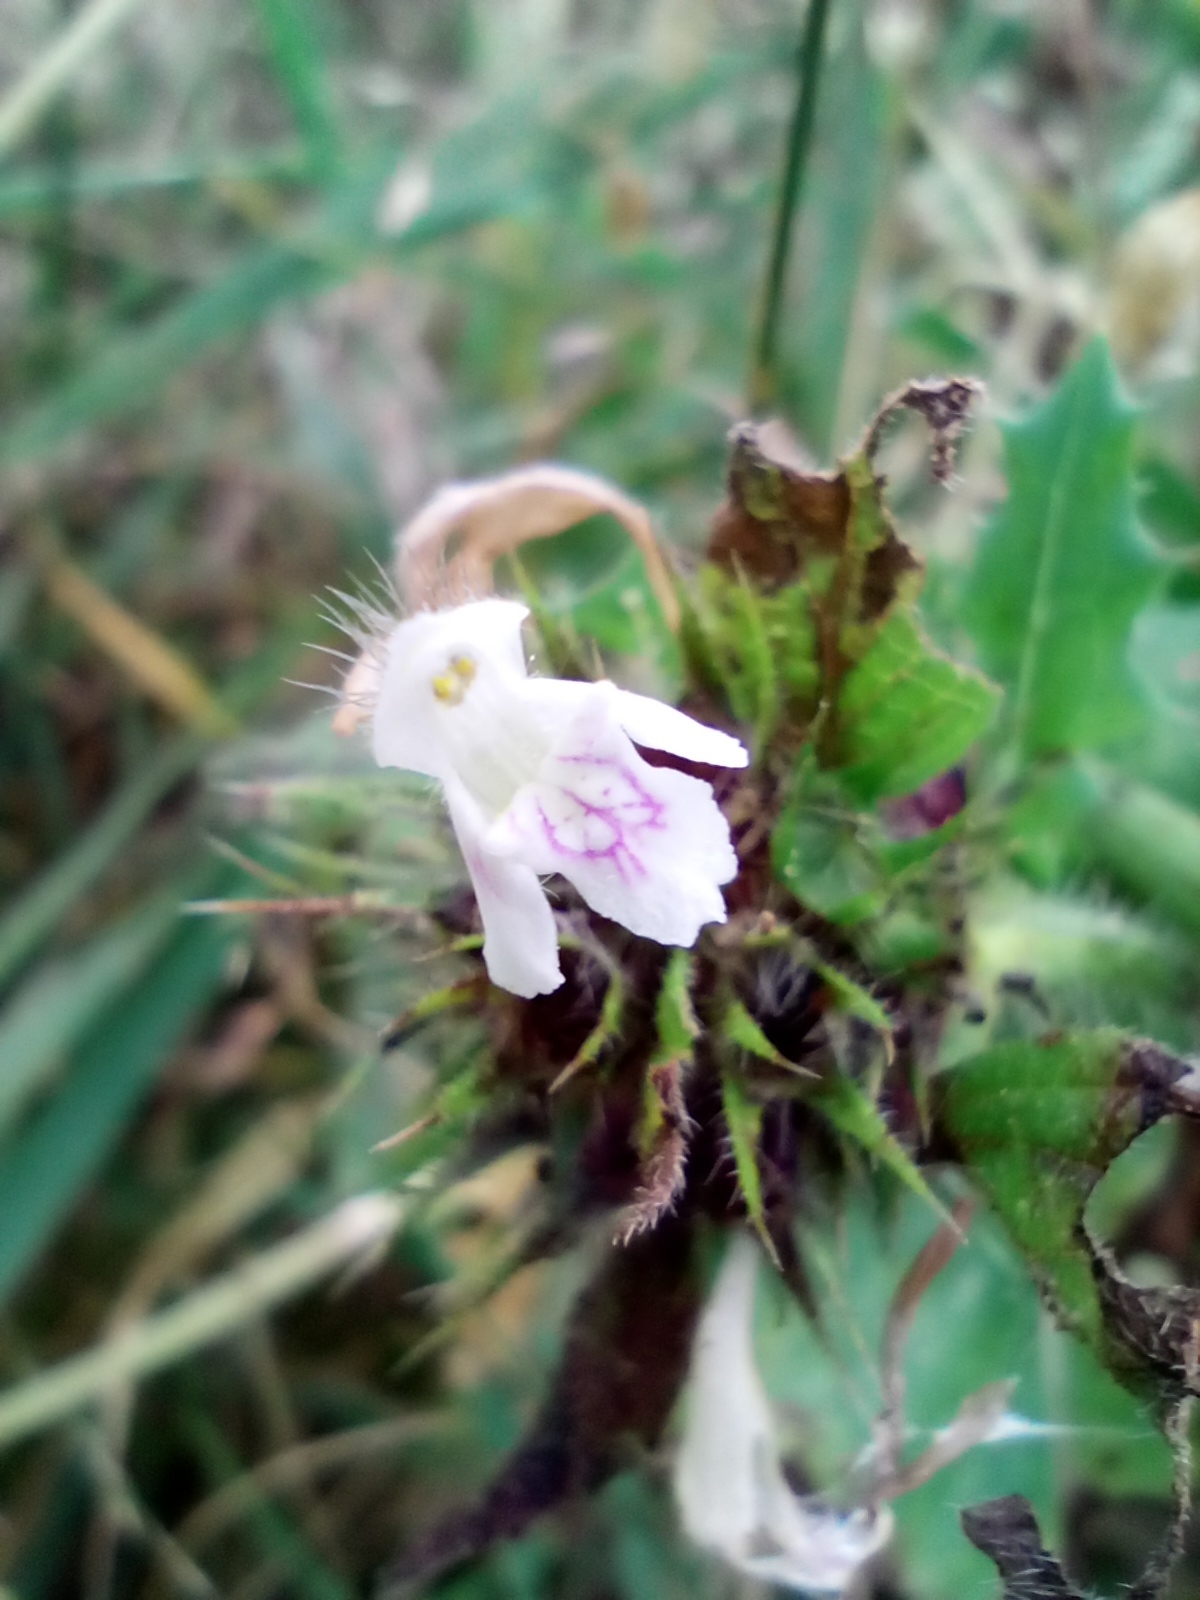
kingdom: Plantae
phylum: Tracheophyta
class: Magnoliopsida
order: Lamiales
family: Lamiaceae
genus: Galeopsis
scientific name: Galeopsis tetrahit
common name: Common hemp-nettle
